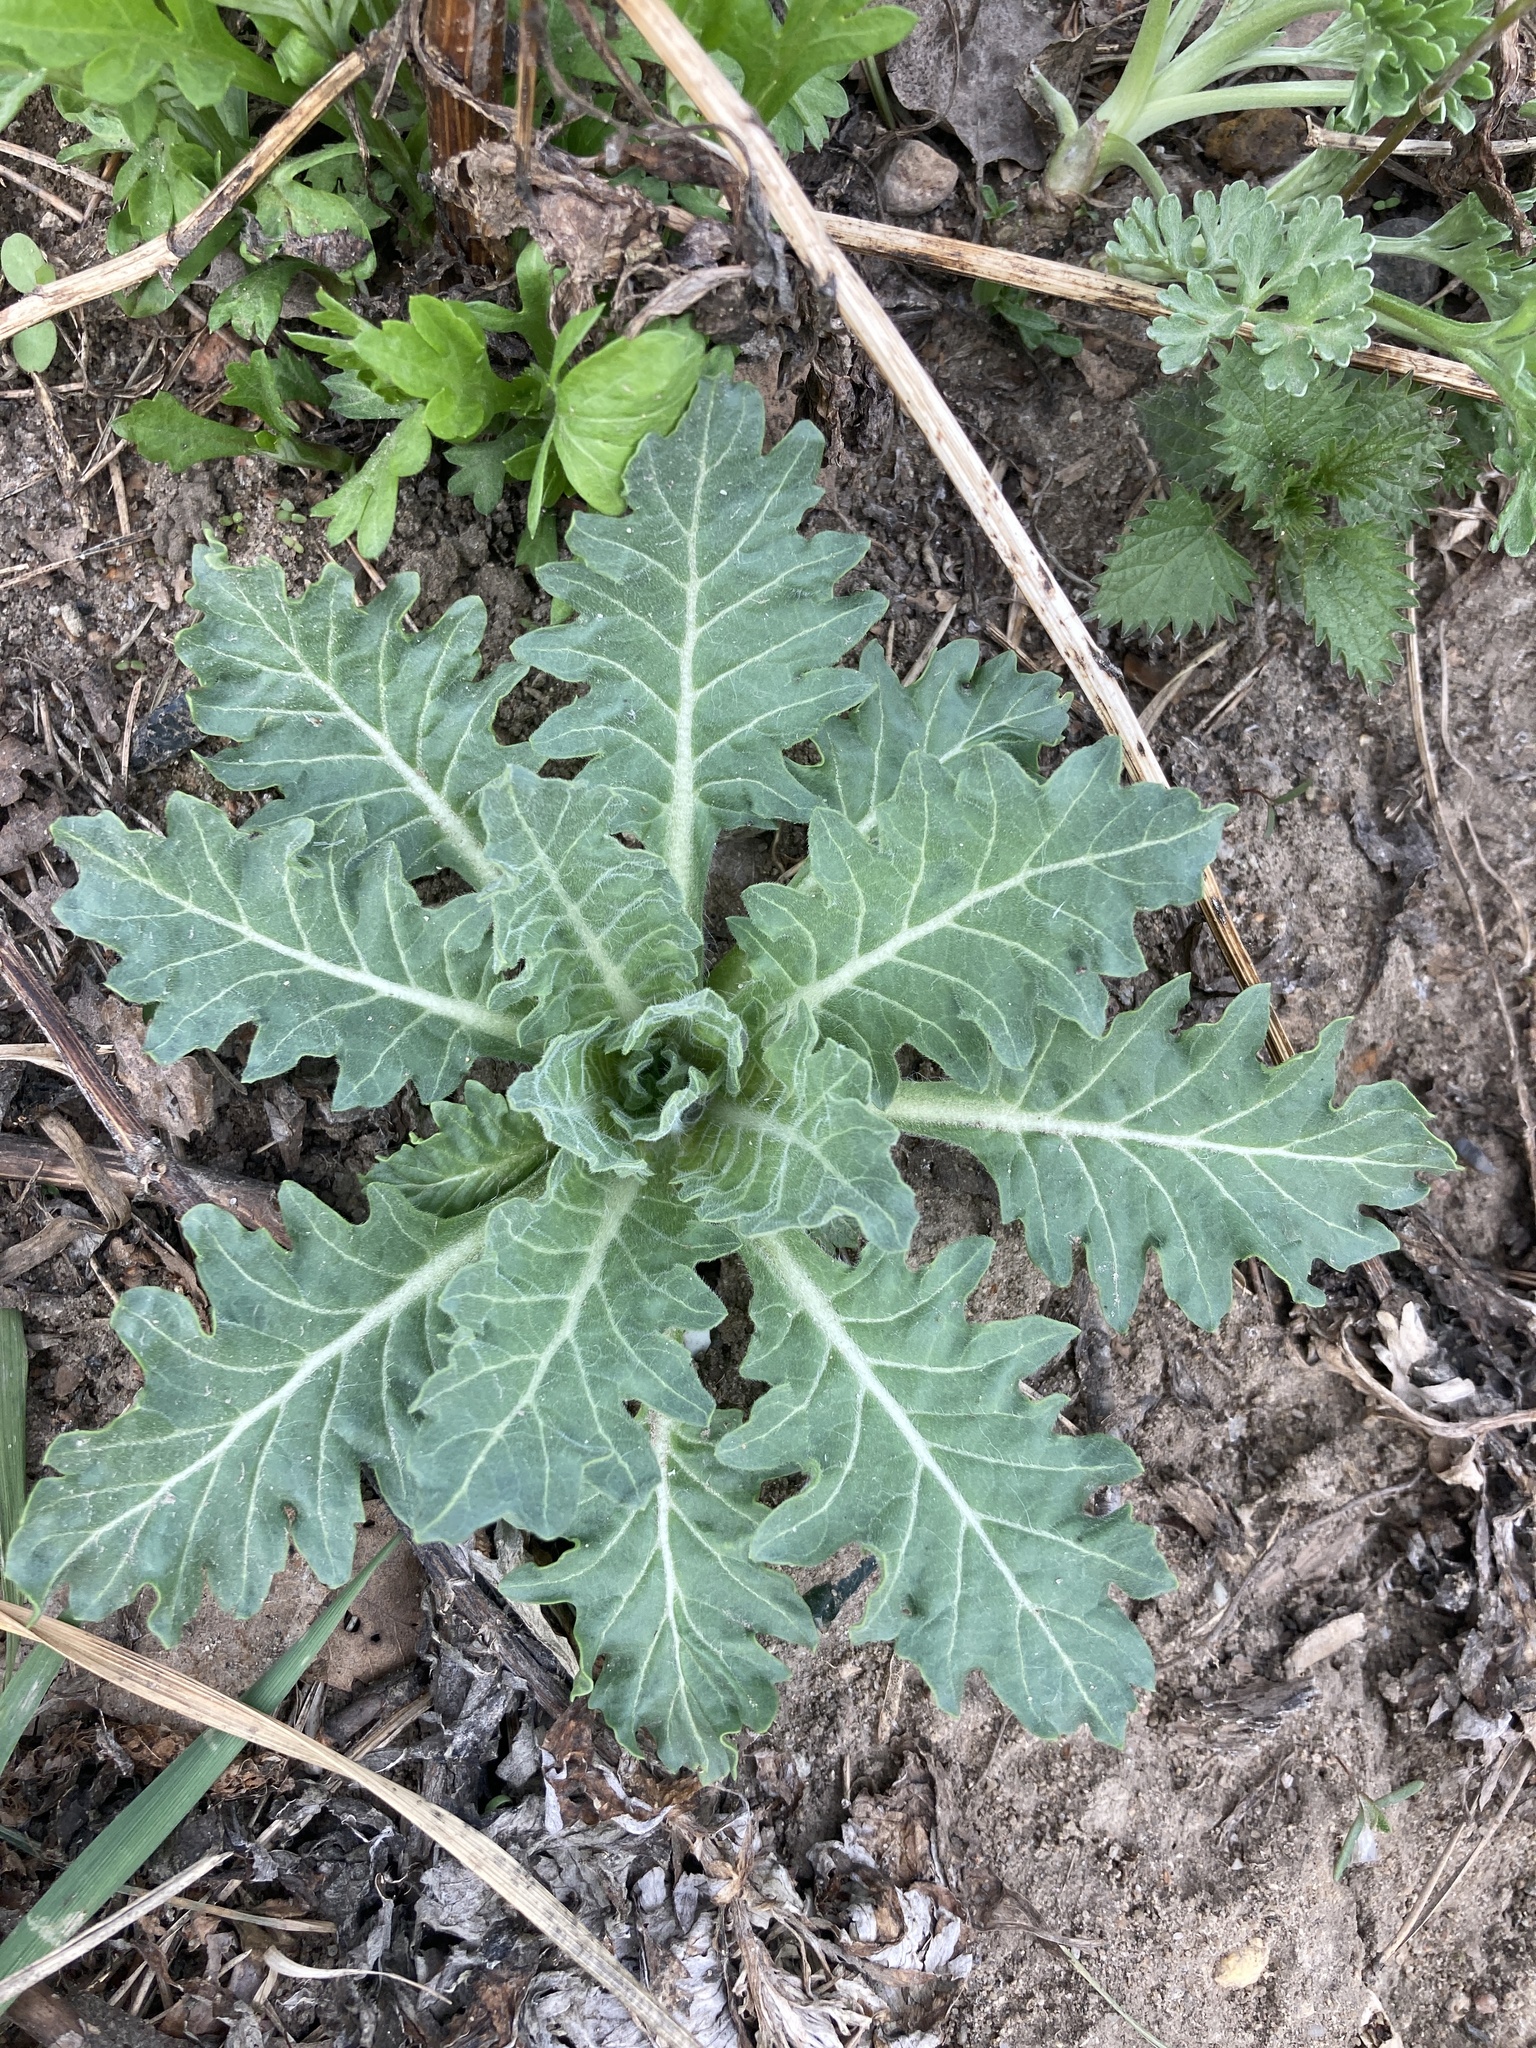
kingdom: Plantae
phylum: Tracheophyta
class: Magnoliopsida
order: Solanales
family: Solanaceae
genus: Hyoscyamus
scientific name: Hyoscyamus niger
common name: Henbane
